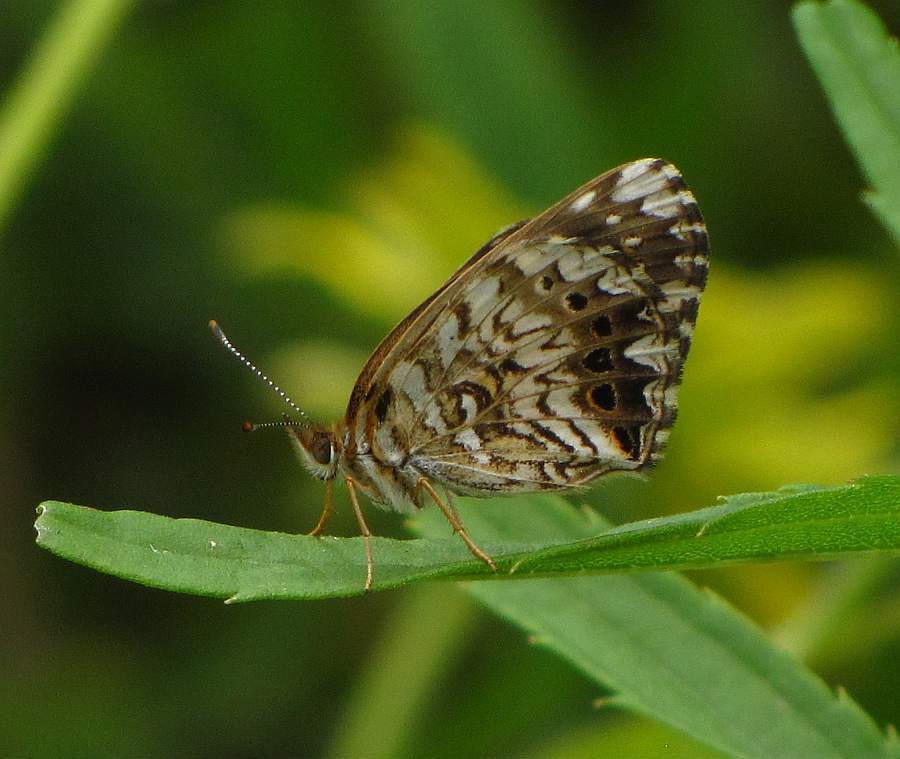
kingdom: Animalia
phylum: Arthropoda
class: Insecta
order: Lepidoptera
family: Nymphalidae
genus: Chlosyne
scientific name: Chlosyne gorgone
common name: Gorgone checkerspot
